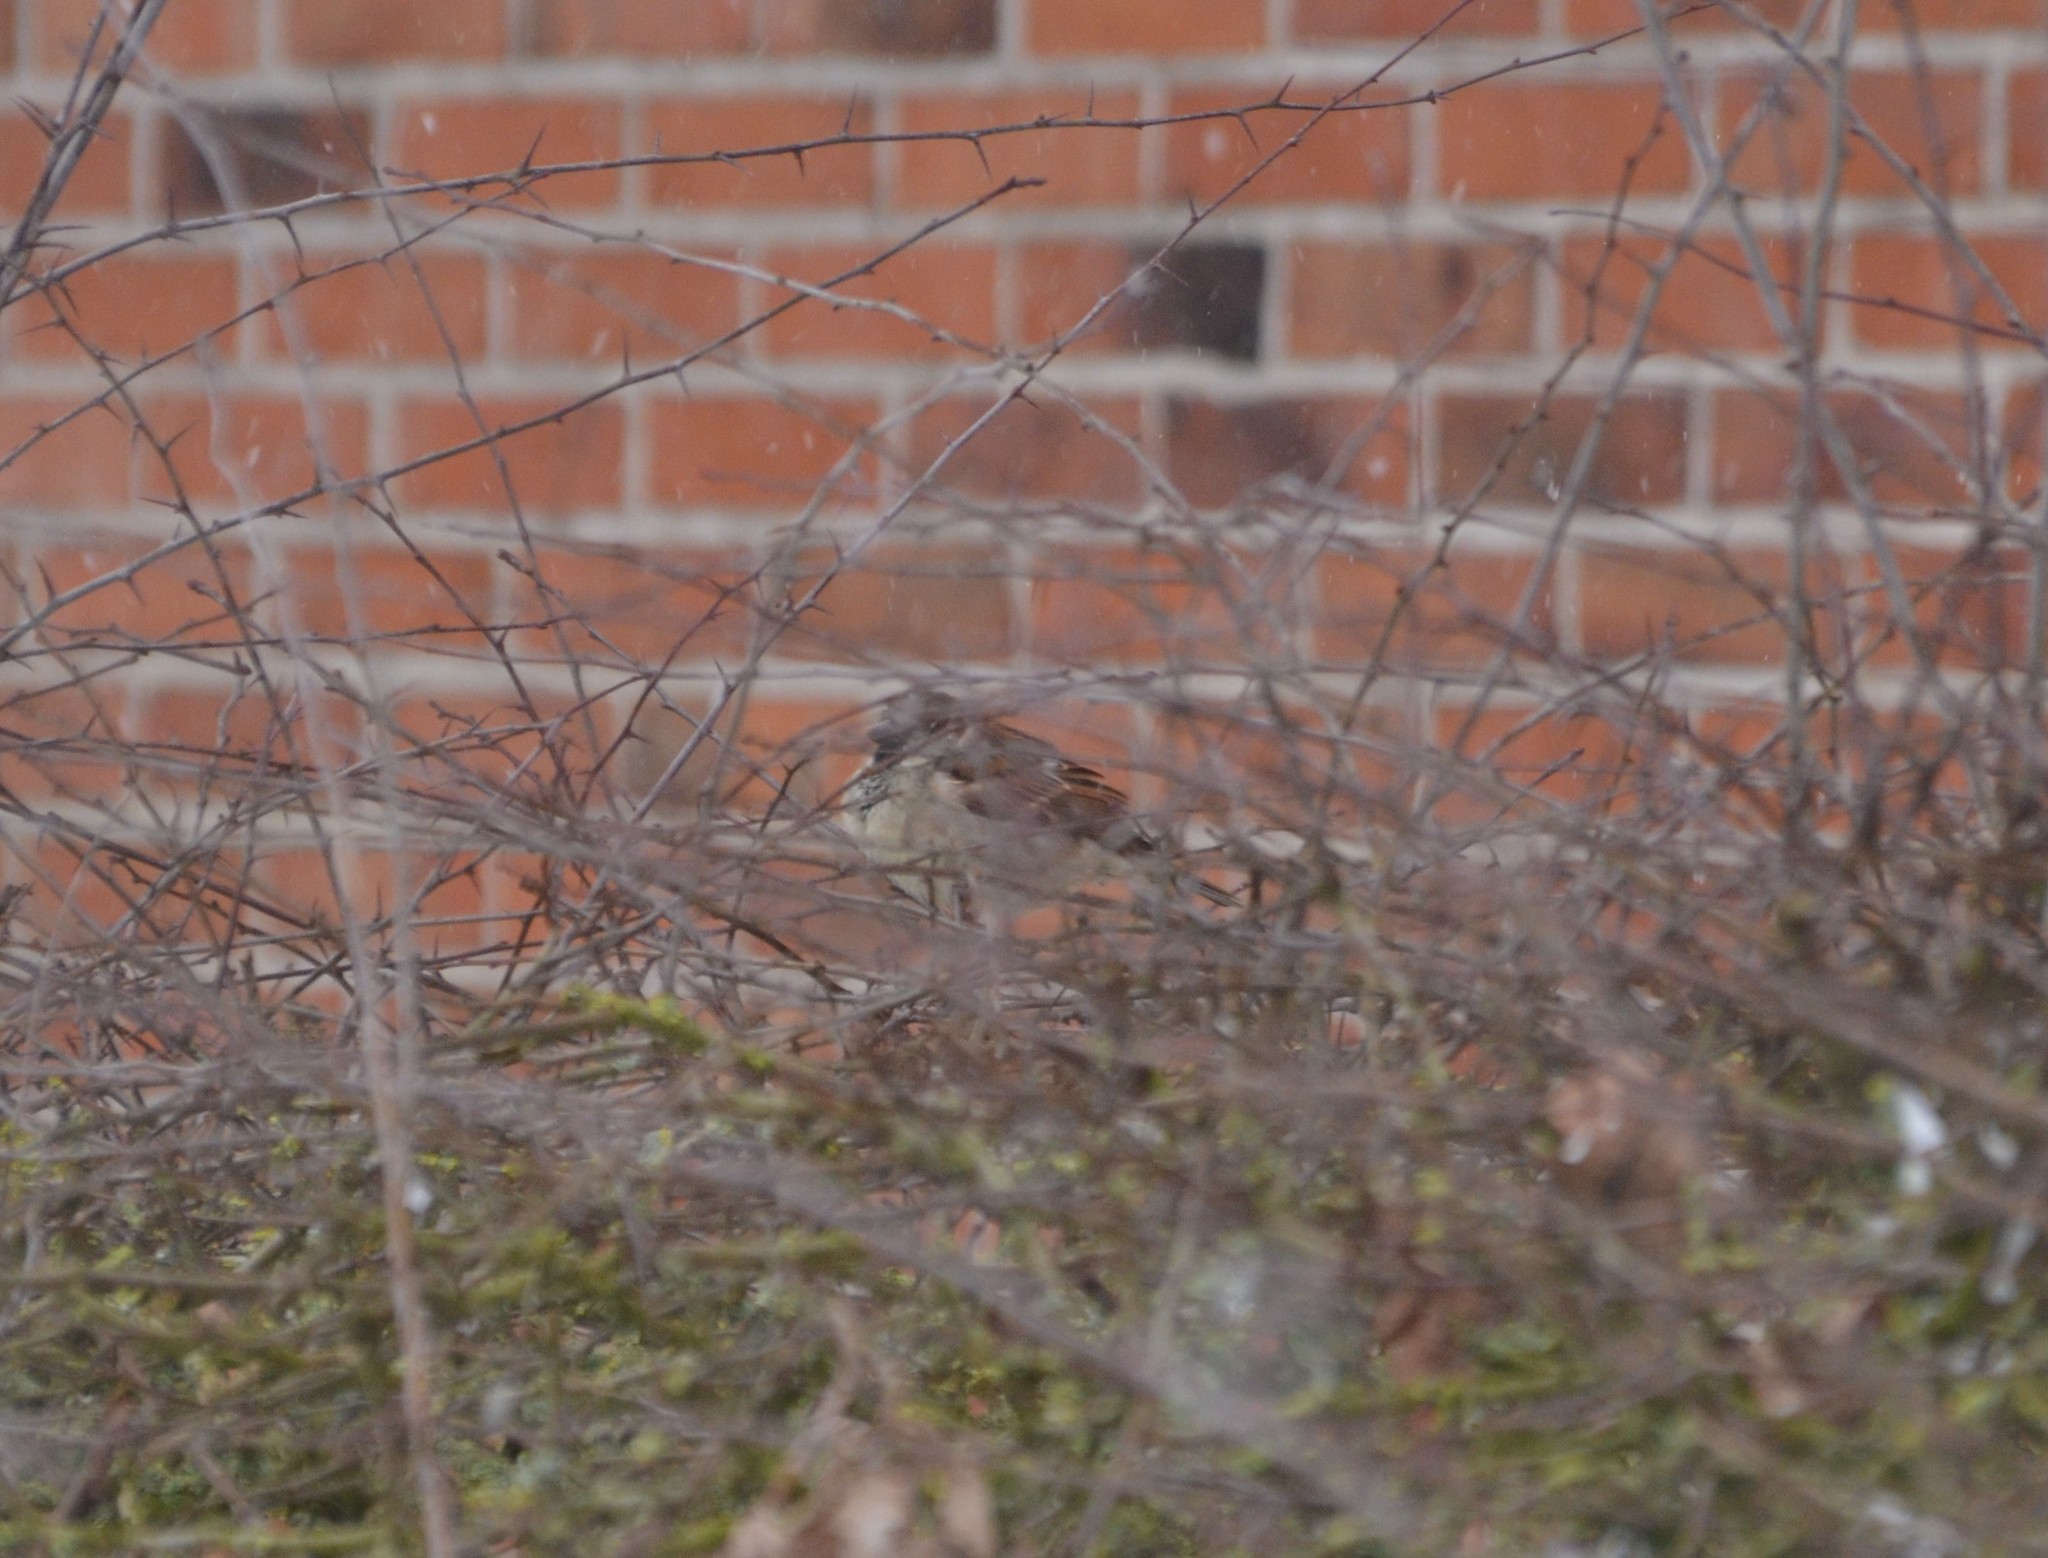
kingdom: Animalia
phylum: Chordata
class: Aves
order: Passeriformes
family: Passeridae
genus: Passer
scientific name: Passer domesticus
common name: House sparrow
